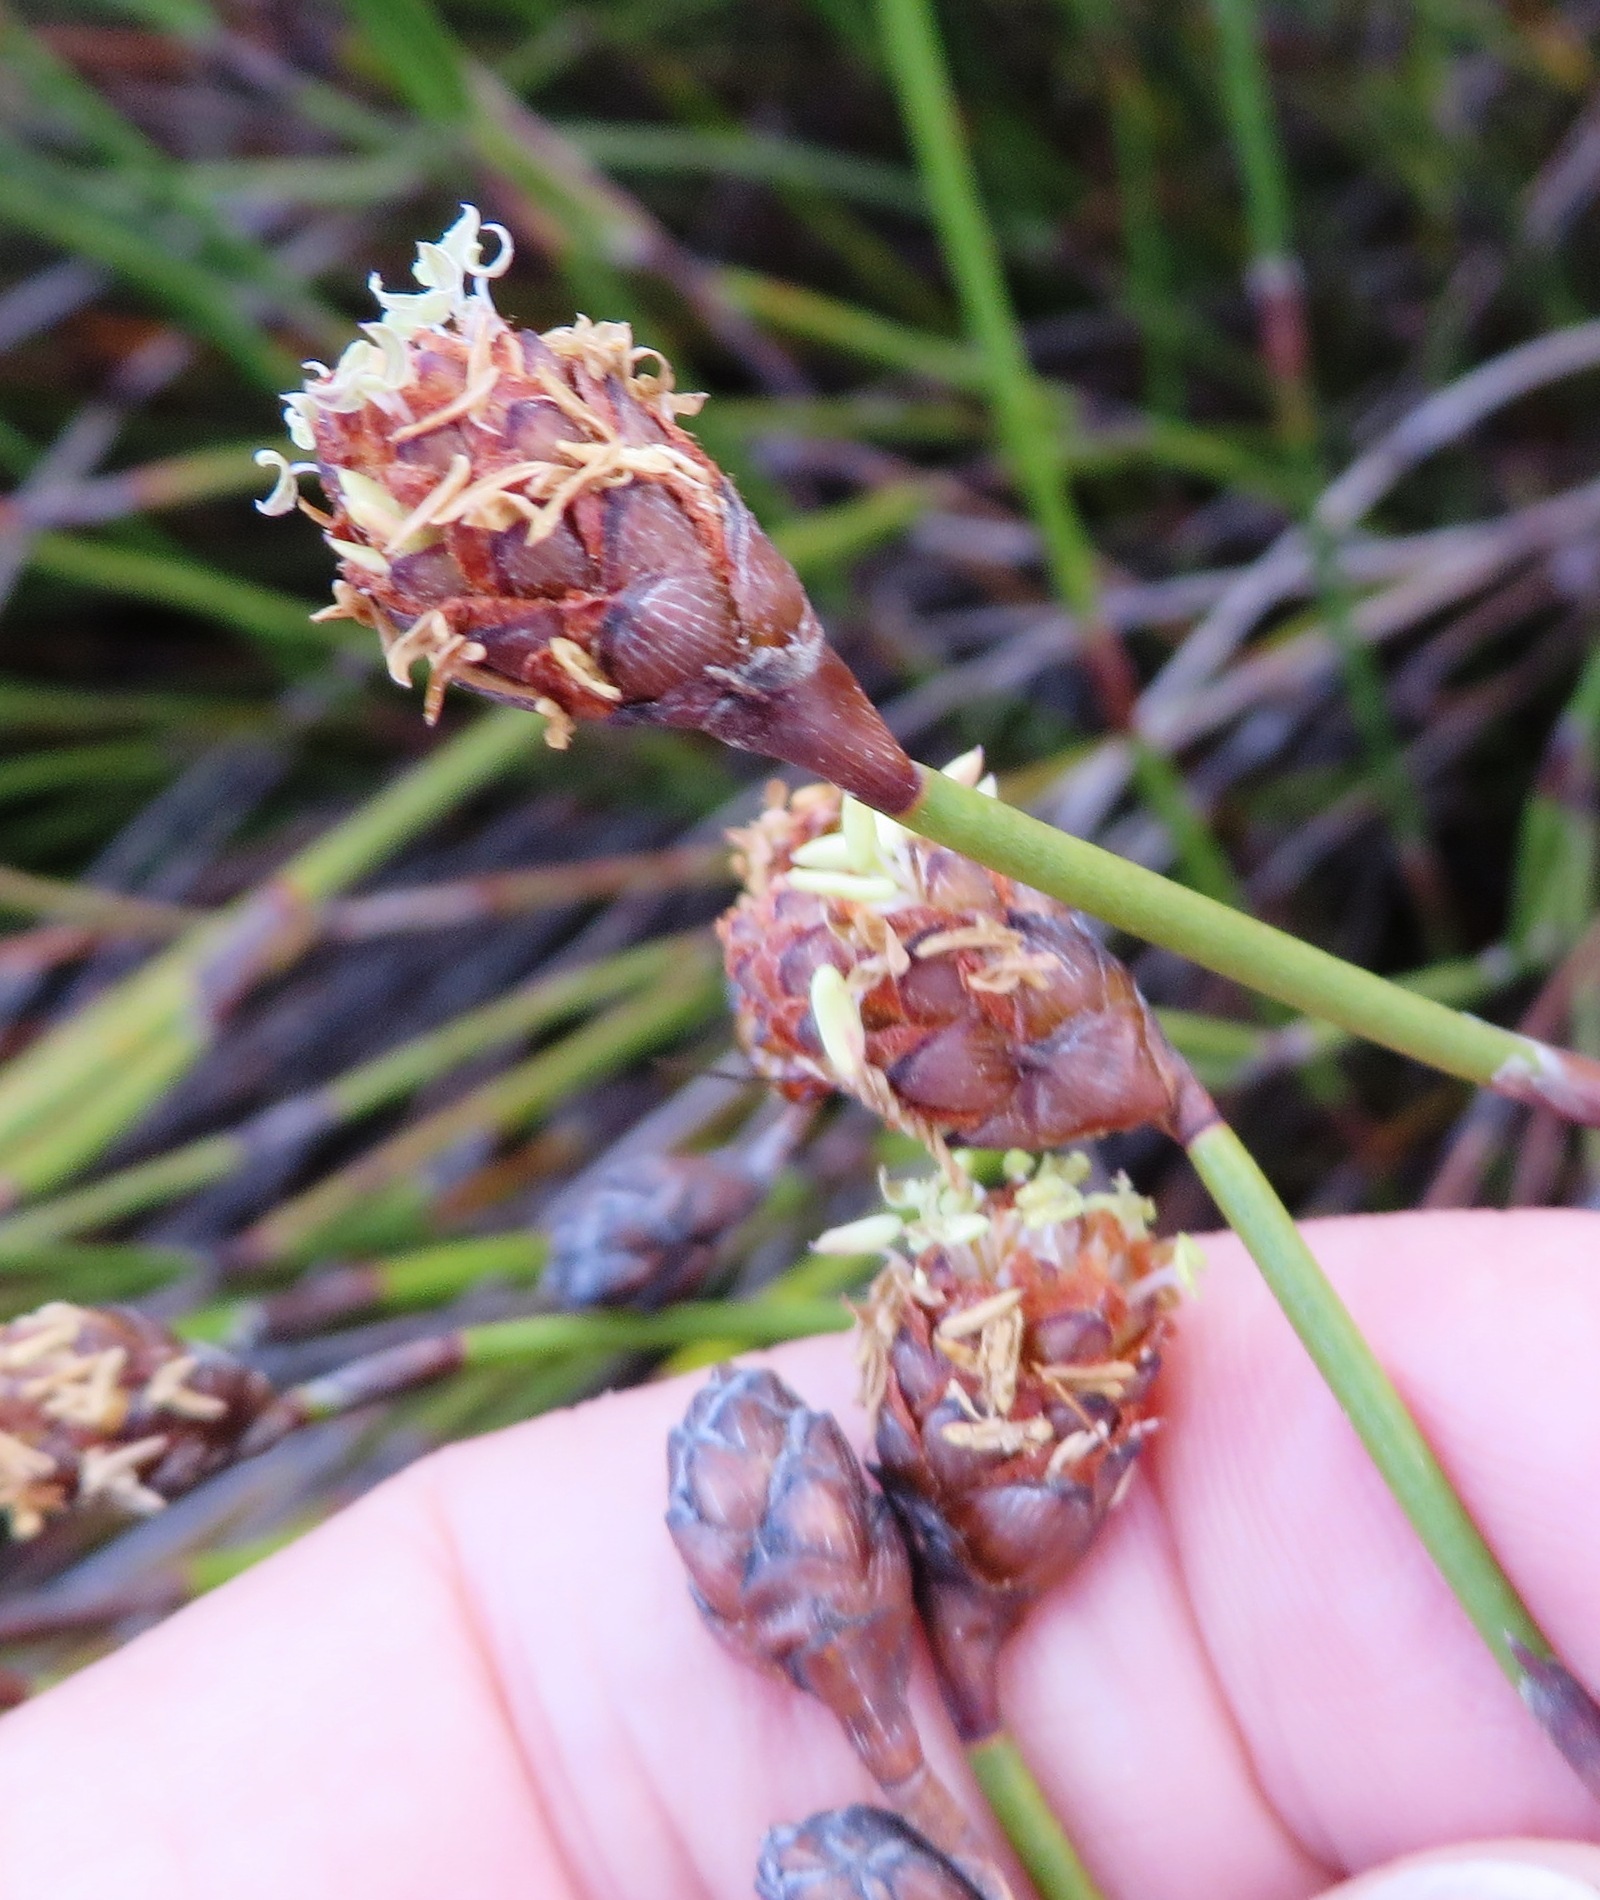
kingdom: Plantae
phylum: Tracheophyta
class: Liliopsida
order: Poales
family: Restionaceae
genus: Restio
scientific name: Restio bolusii
